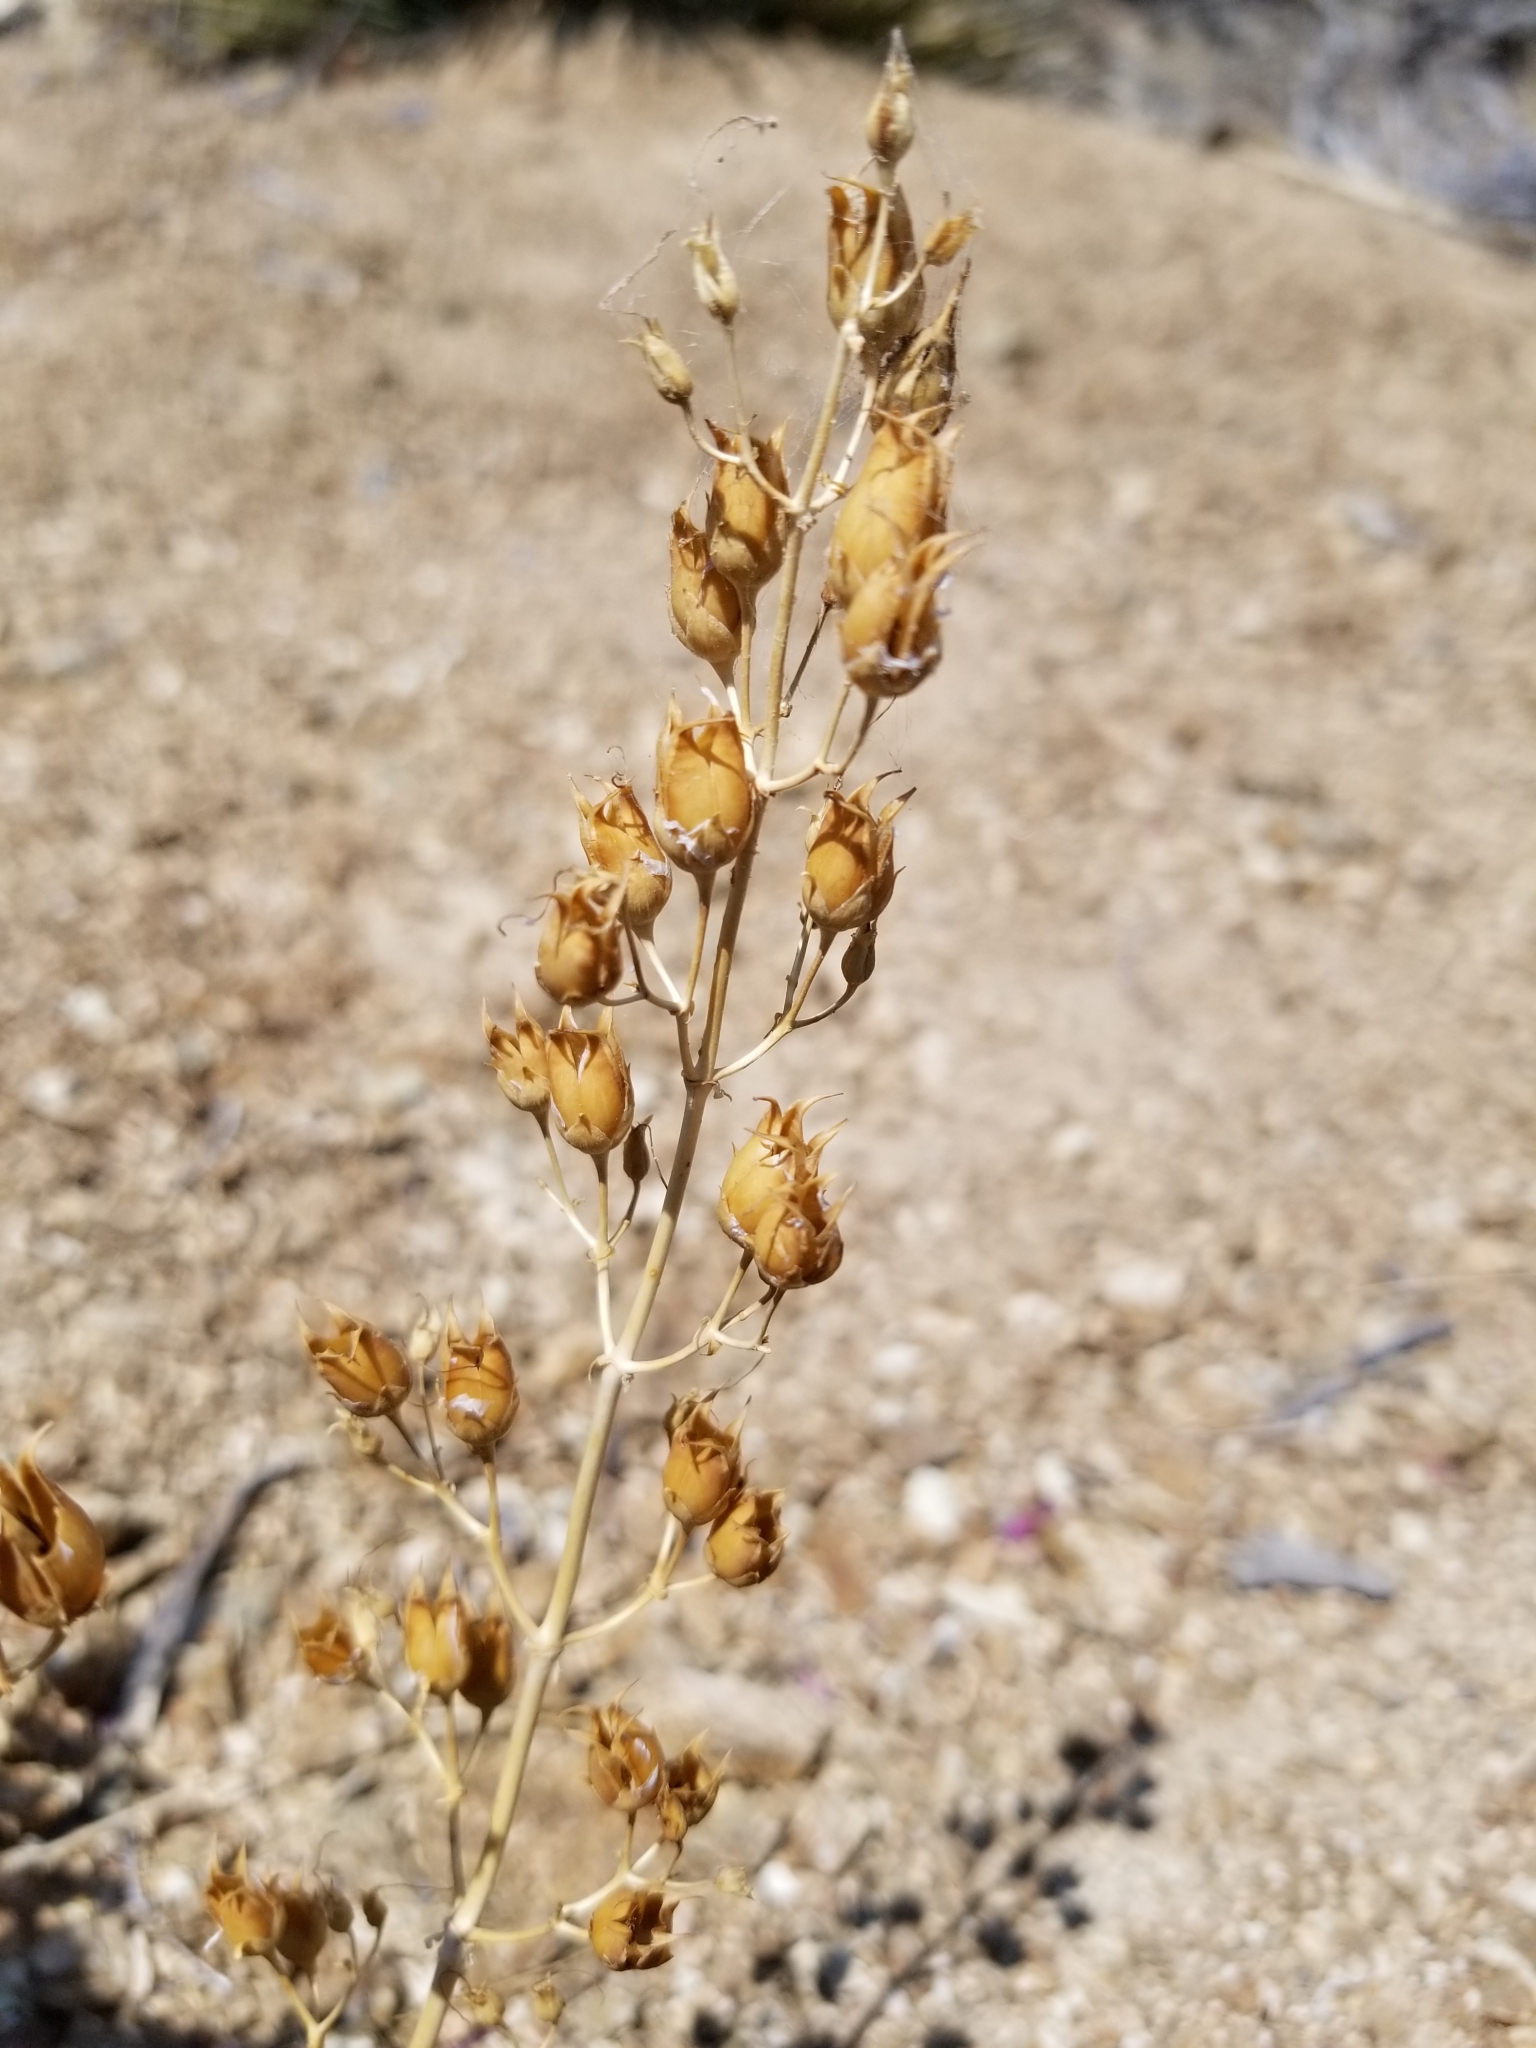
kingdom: Plantae
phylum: Tracheophyta
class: Magnoliopsida
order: Lamiales
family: Plantaginaceae
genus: Penstemon
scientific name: Penstemon clevelandii
